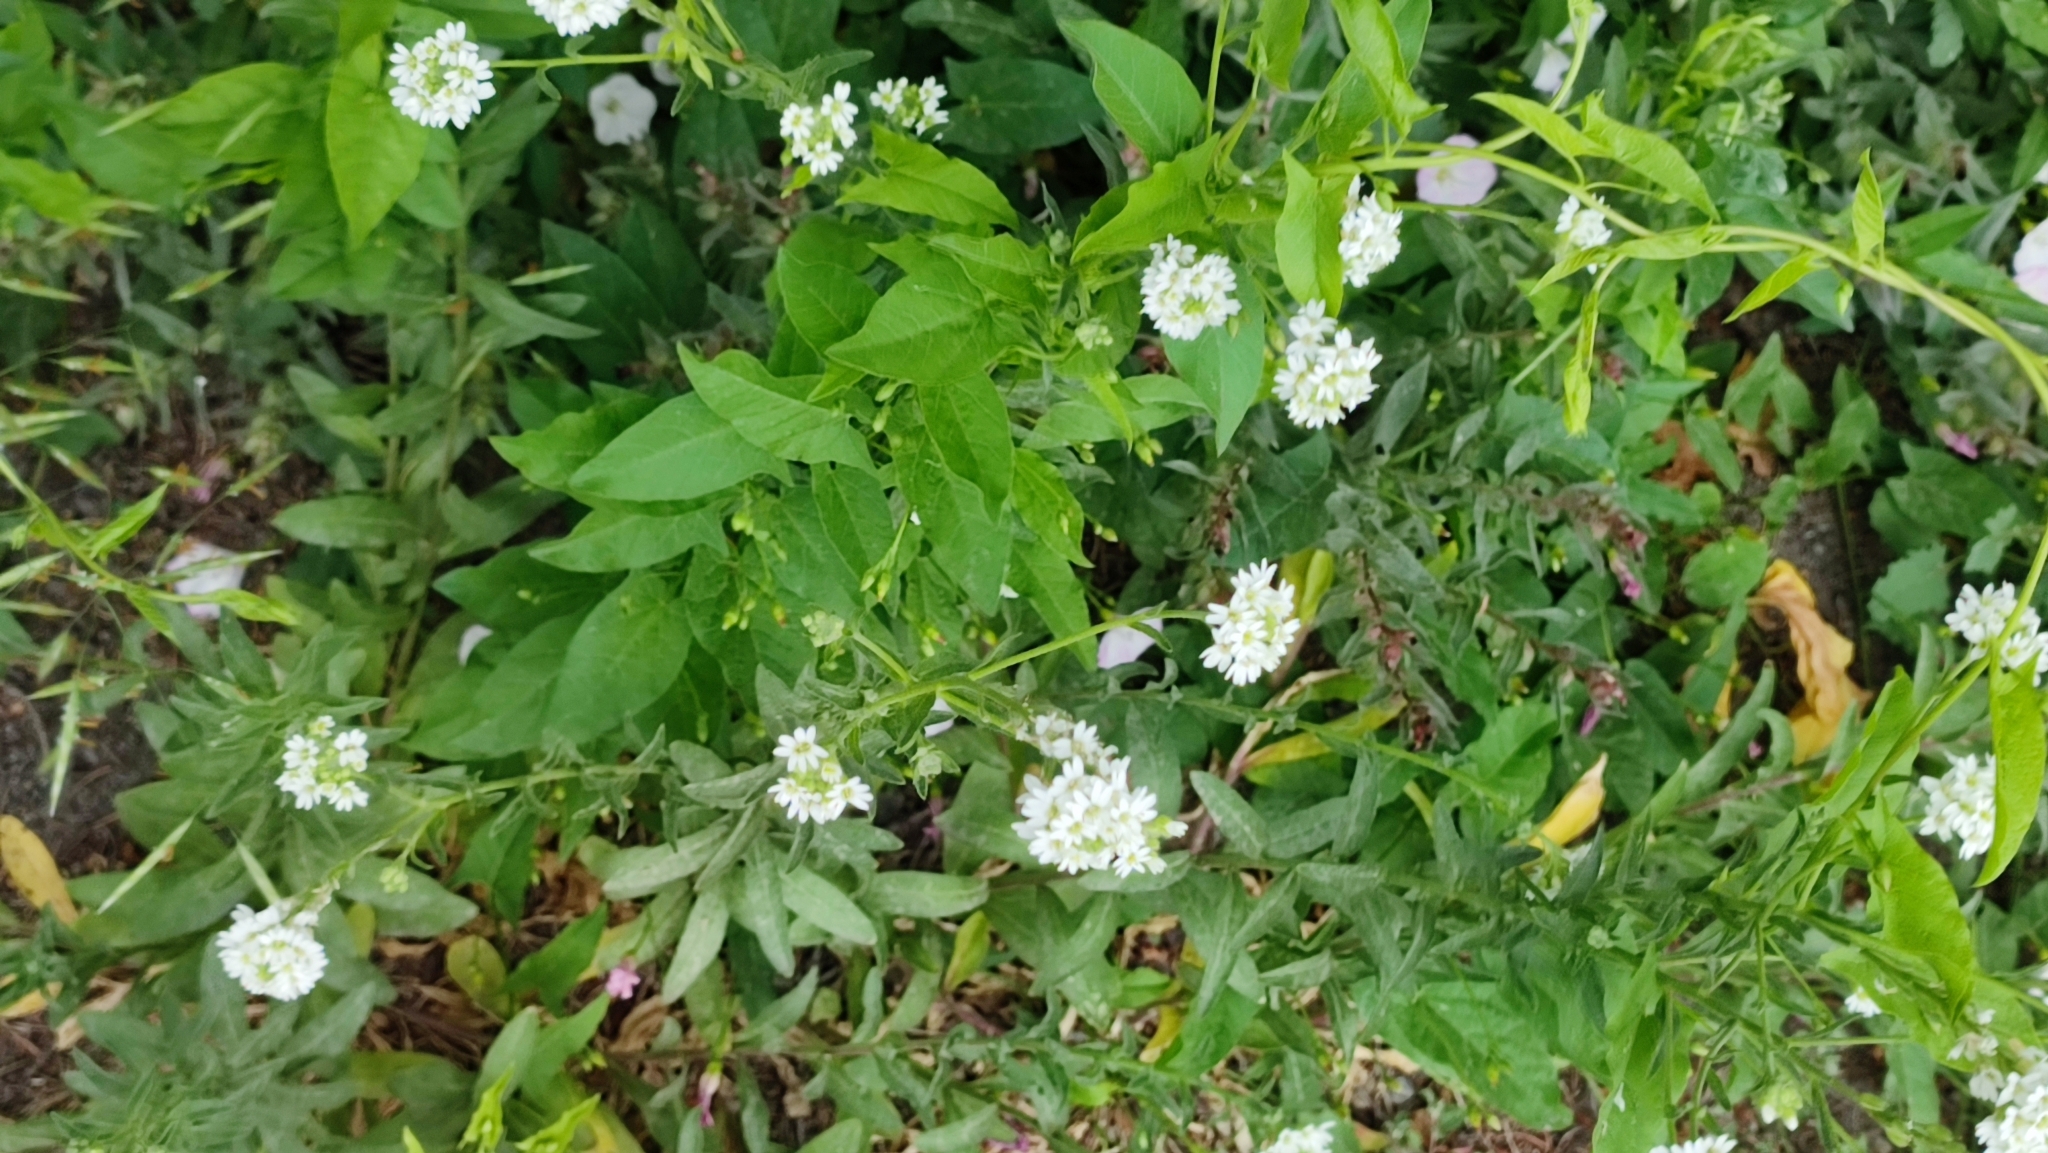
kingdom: Plantae
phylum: Tracheophyta
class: Magnoliopsida
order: Brassicales
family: Brassicaceae
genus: Berteroa
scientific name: Berteroa incana
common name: Hoary alison
